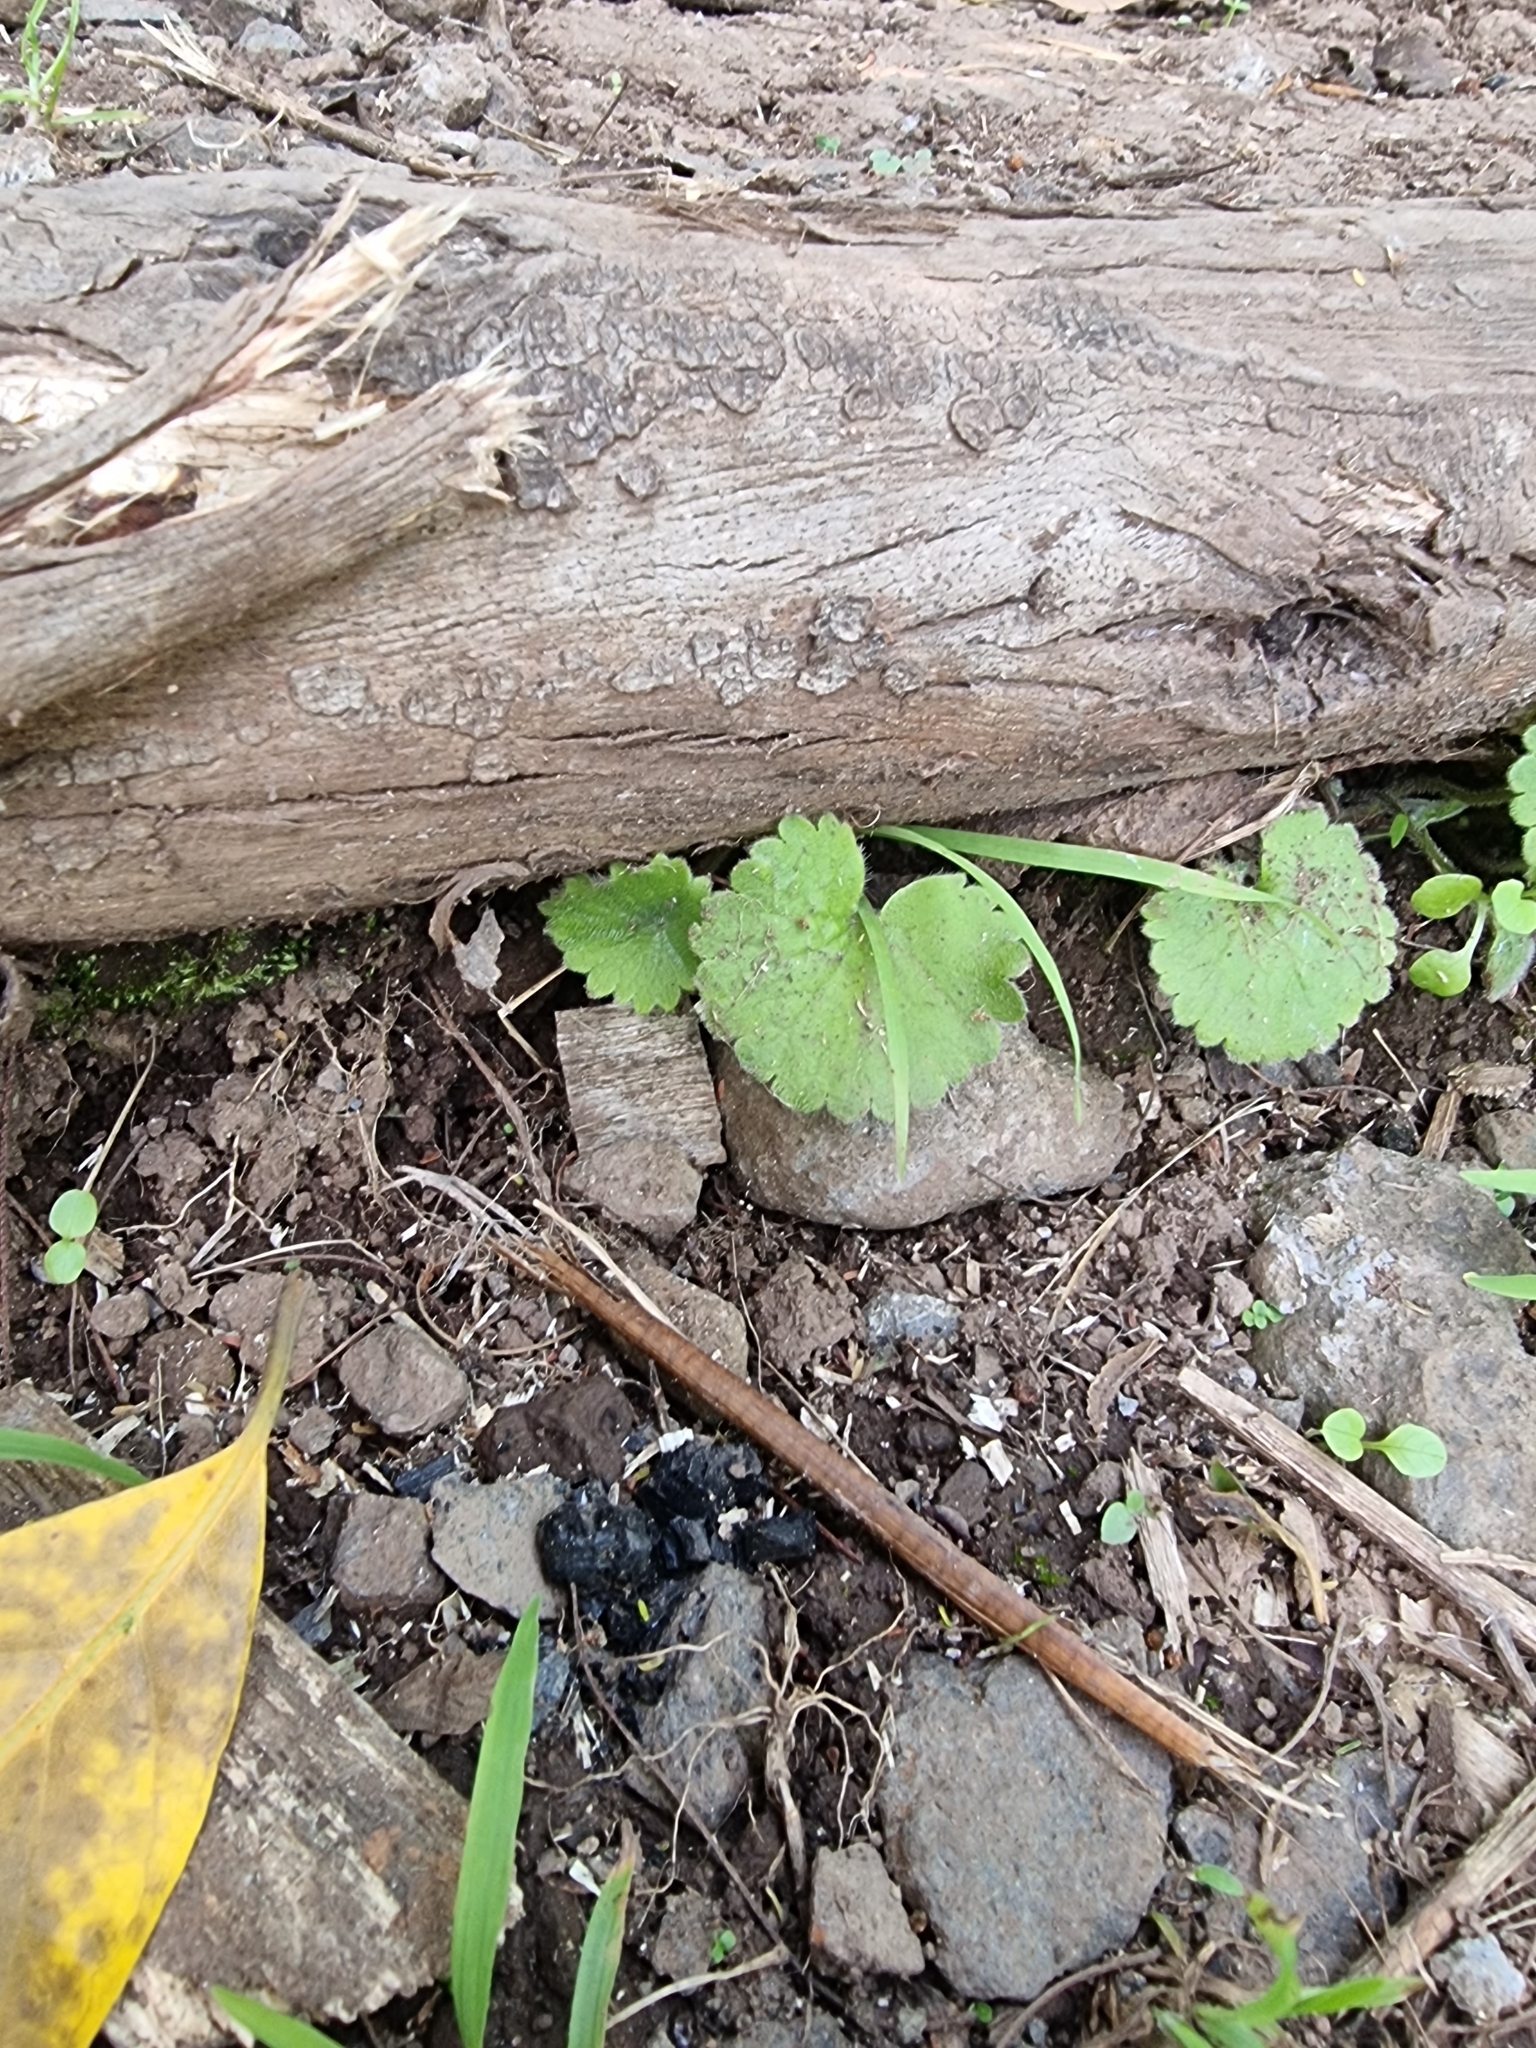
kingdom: Plantae
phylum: Tracheophyta
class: Magnoliopsida
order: Lamiales
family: Plantaginaceae
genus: Sibthorpia
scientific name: Sibthorpia peregrina
